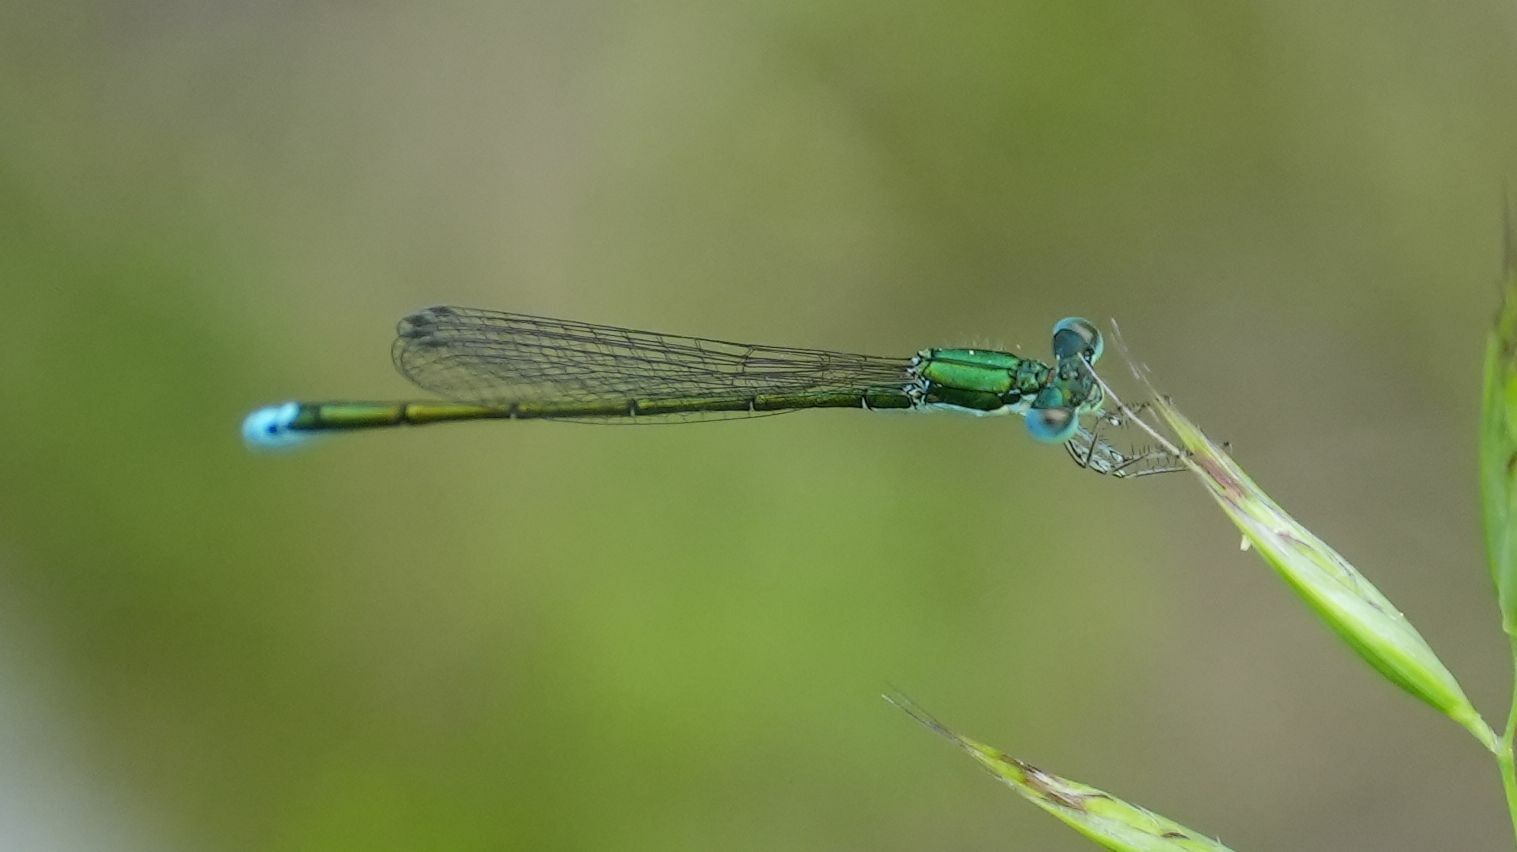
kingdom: Animalia
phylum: Arthropoda
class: Insecta
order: Odonata
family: Coenagrionidae
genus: Nehalennia
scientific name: Nehalennia irene
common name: Sedge sprite
